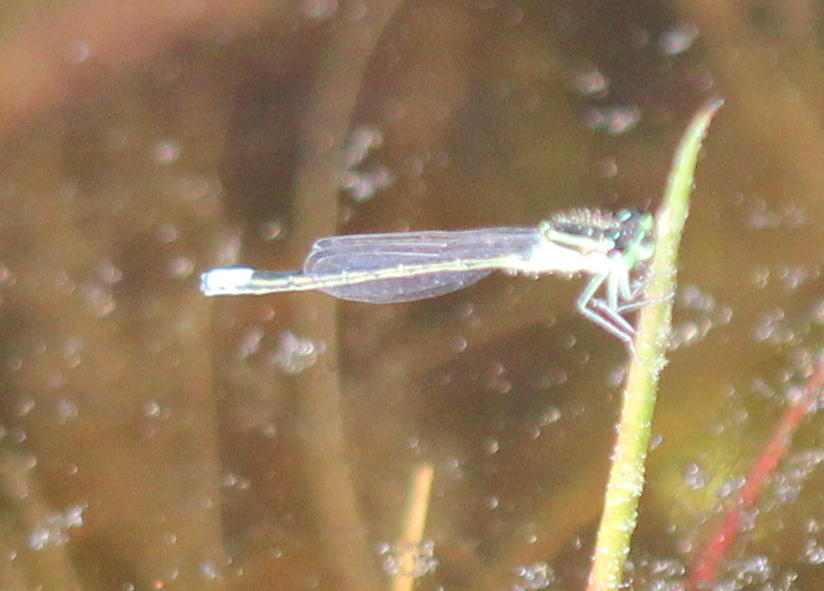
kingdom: Animalia
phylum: Arthropoda
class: Insecta
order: Odonata
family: Coenagrionidae
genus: Ischnura
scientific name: Ischnura verticalis
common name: Eastern forktail
